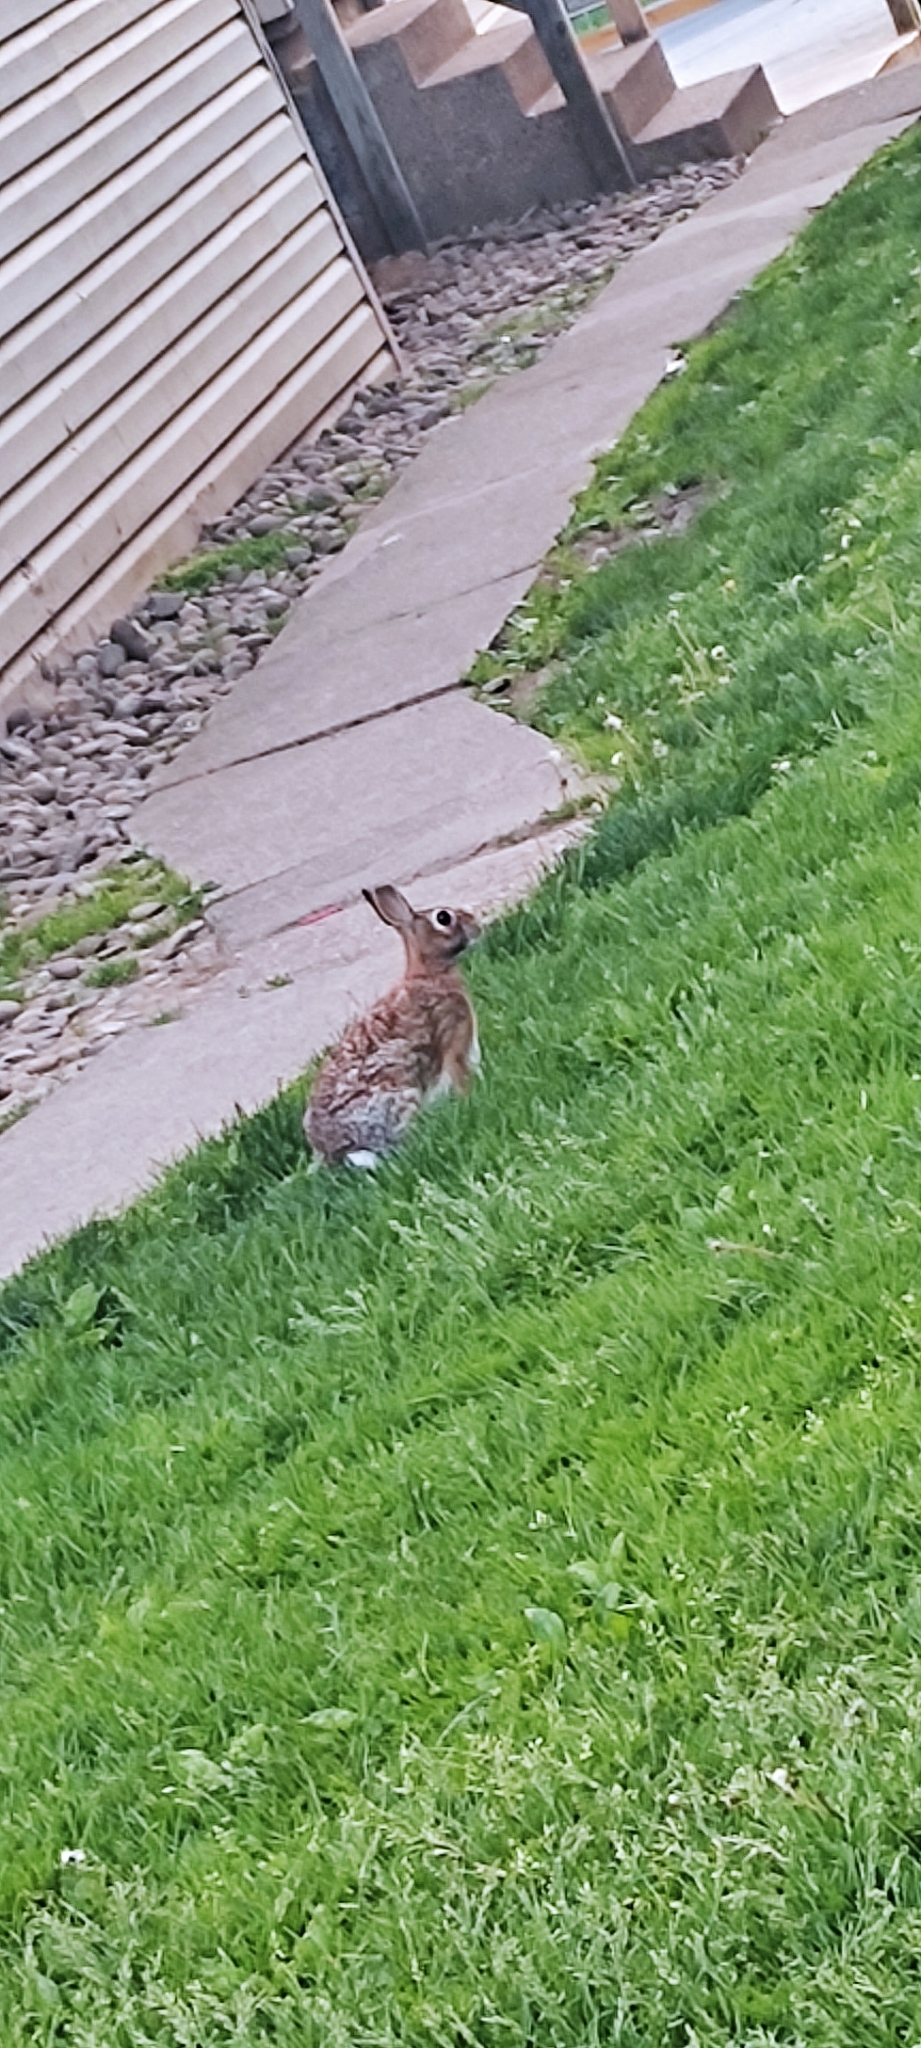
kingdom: Animalia
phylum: Chordata
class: Mammalia
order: Lagomorpha
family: Leporidae
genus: Sylvilagus
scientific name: Sylvilagus floridanus
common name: Eastern cottontail
